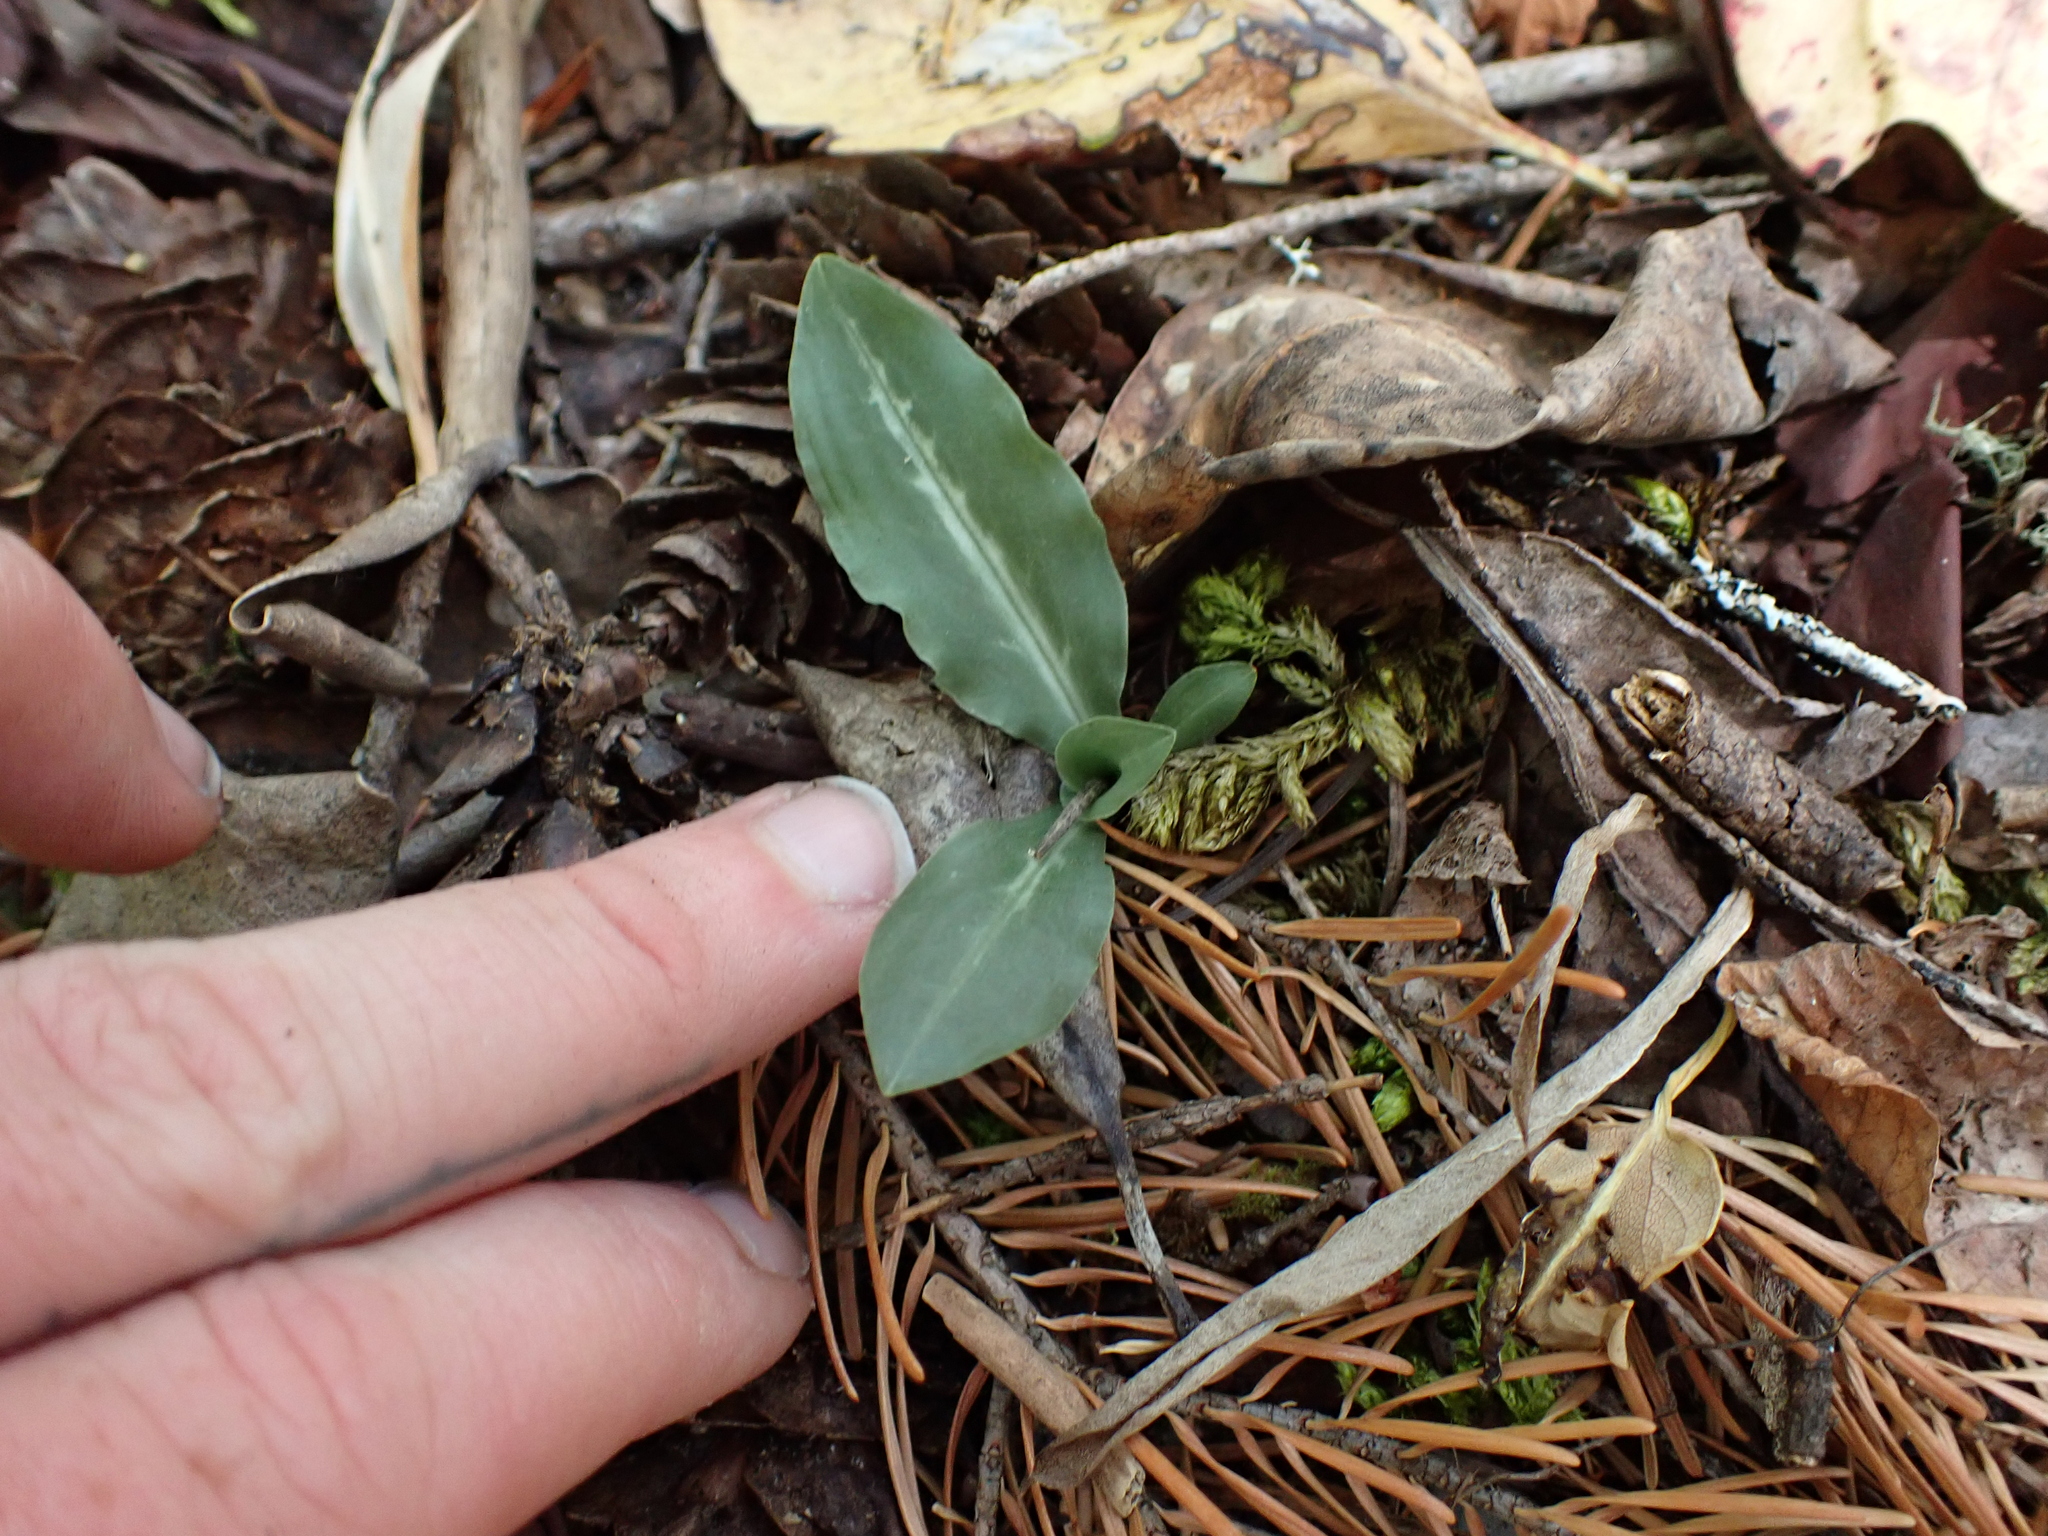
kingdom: Plantae
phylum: Tracheophyta
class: Liliopsida
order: Asparagales
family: Orchidaceae
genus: Goodyera
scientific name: Goodyera oblongifolia
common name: Giant rattlesnake-plantain
